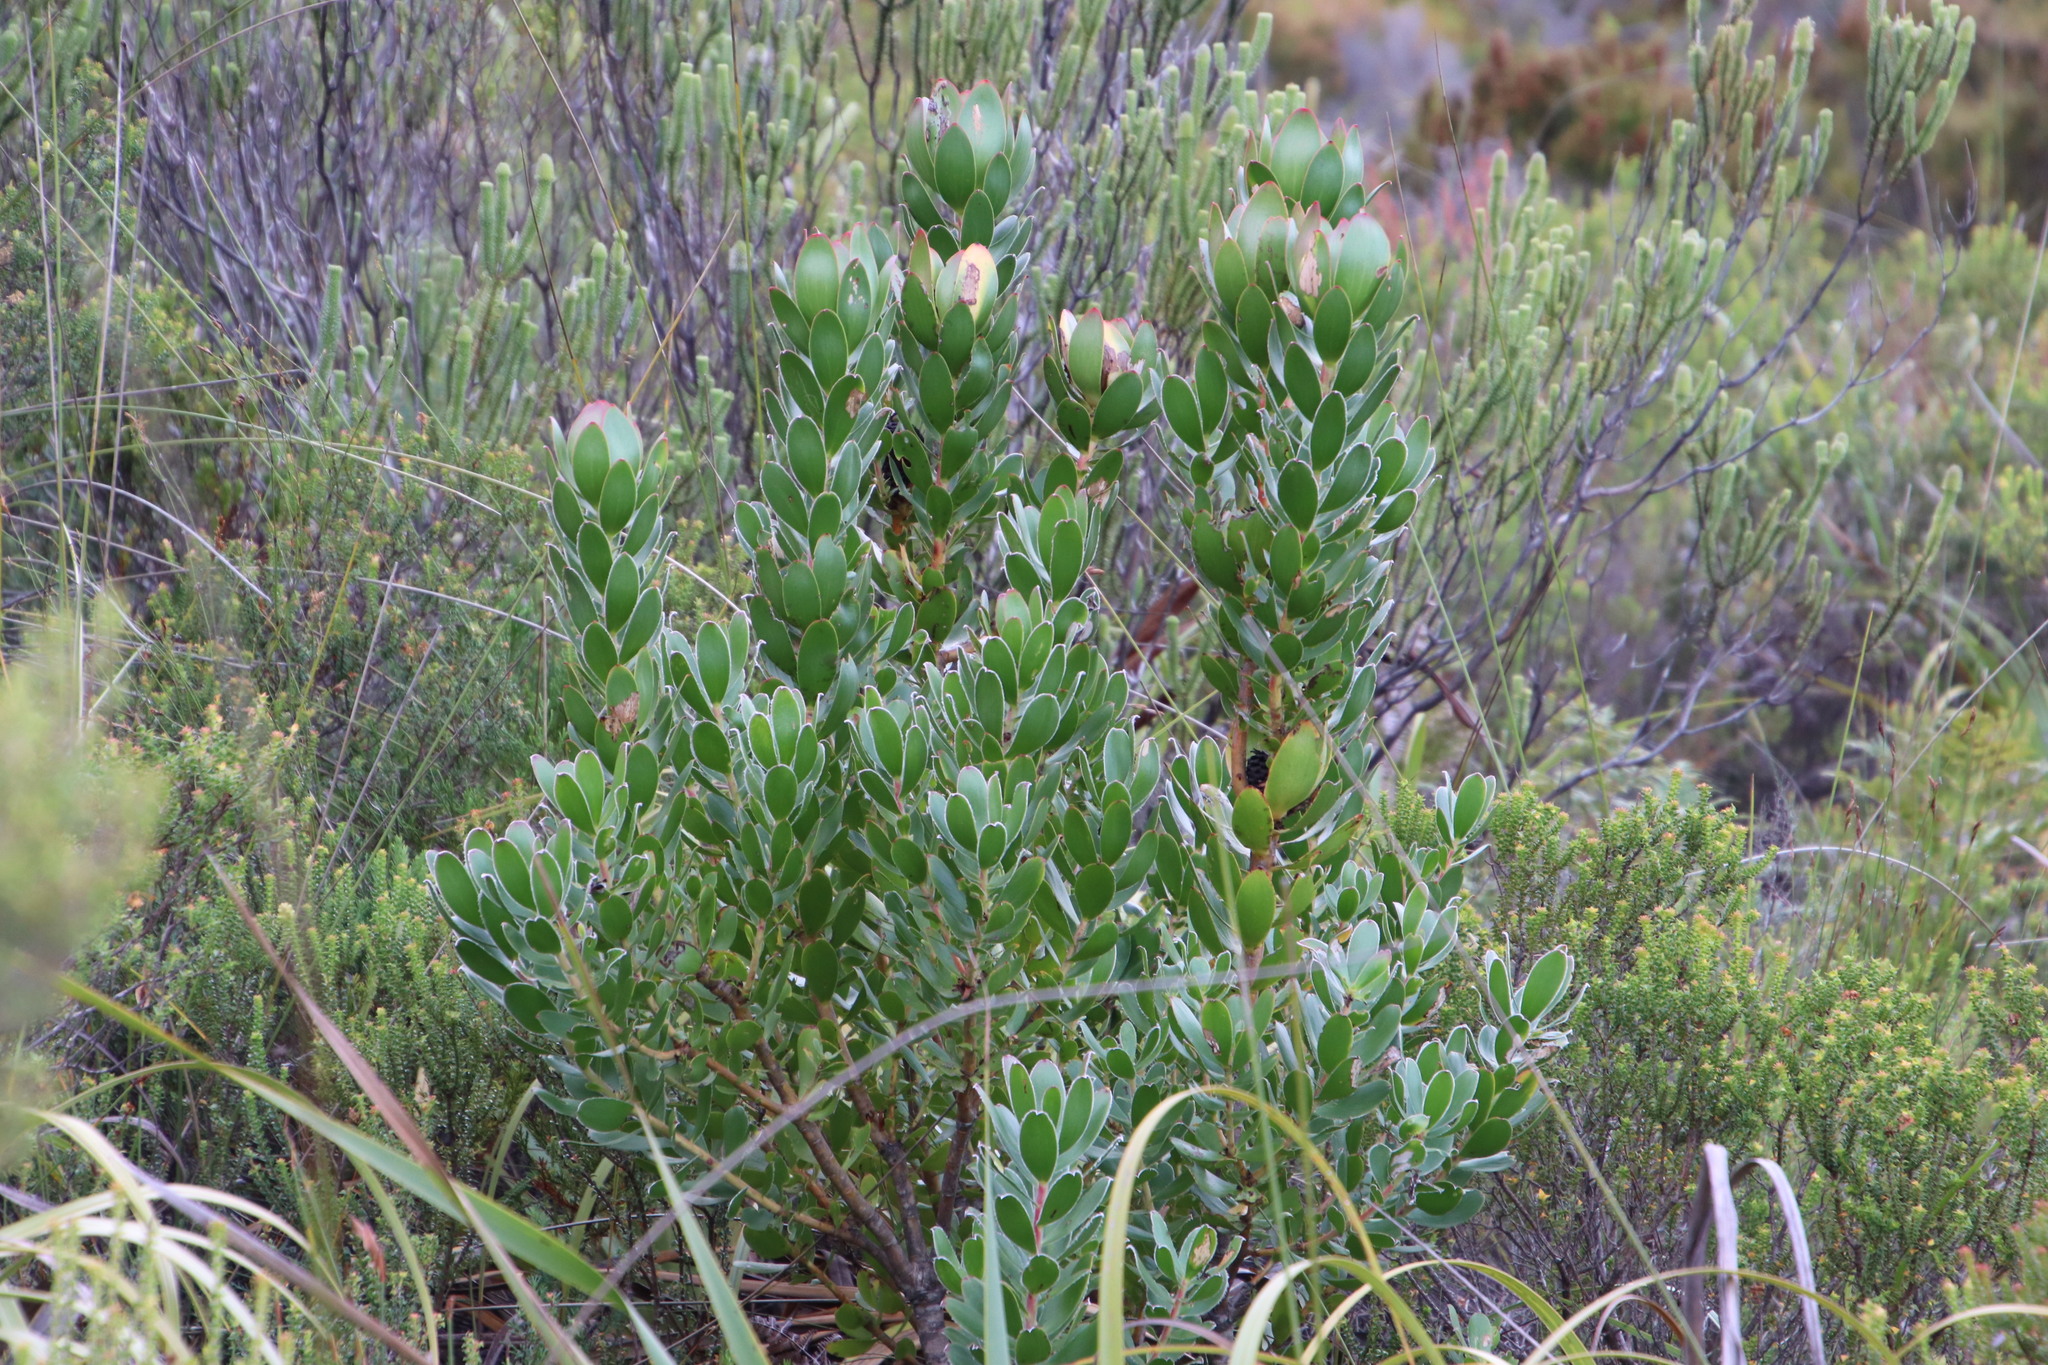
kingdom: Plantae
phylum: Tracheophyta
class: Magnoliopsida
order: Proteales
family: Proteaceae
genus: Leucadendron
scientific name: Leucadendron strobilinum
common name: Mountain rose
